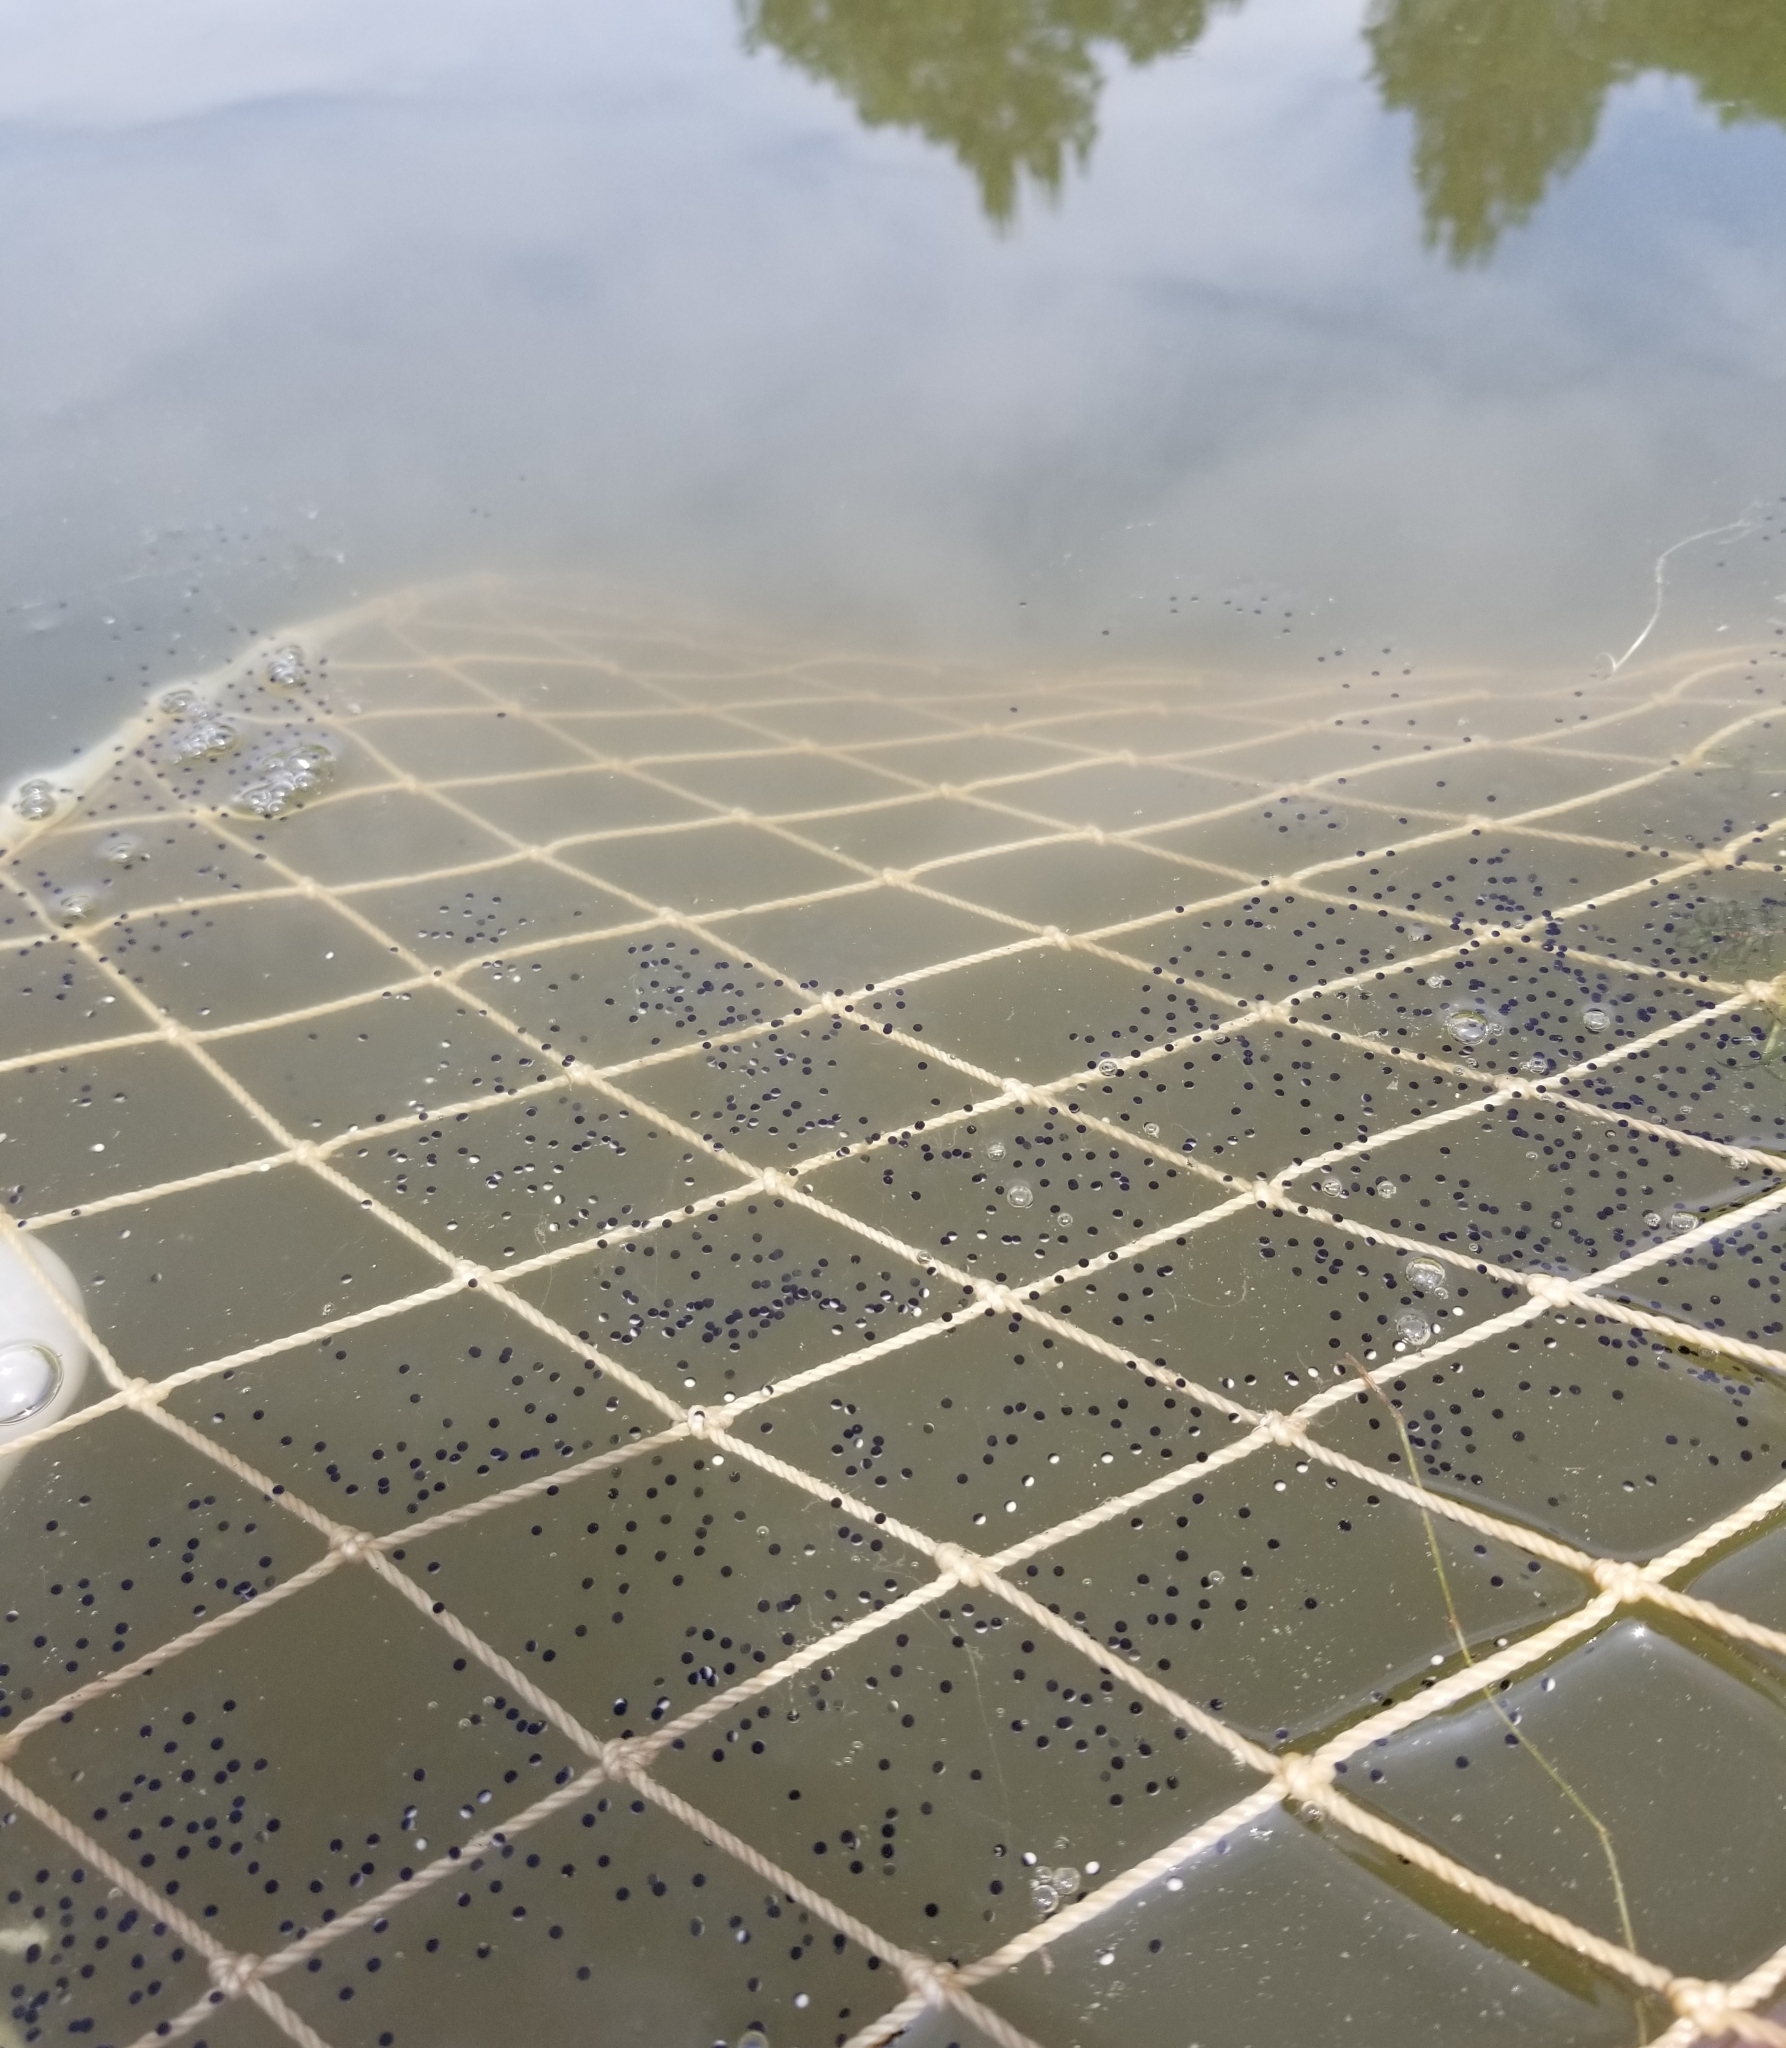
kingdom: Animalia
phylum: Chordata
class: Amphibia
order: Anura
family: Ranidae
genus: Lithobates
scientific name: Lithobates catesbeianus
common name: American bullfrog
